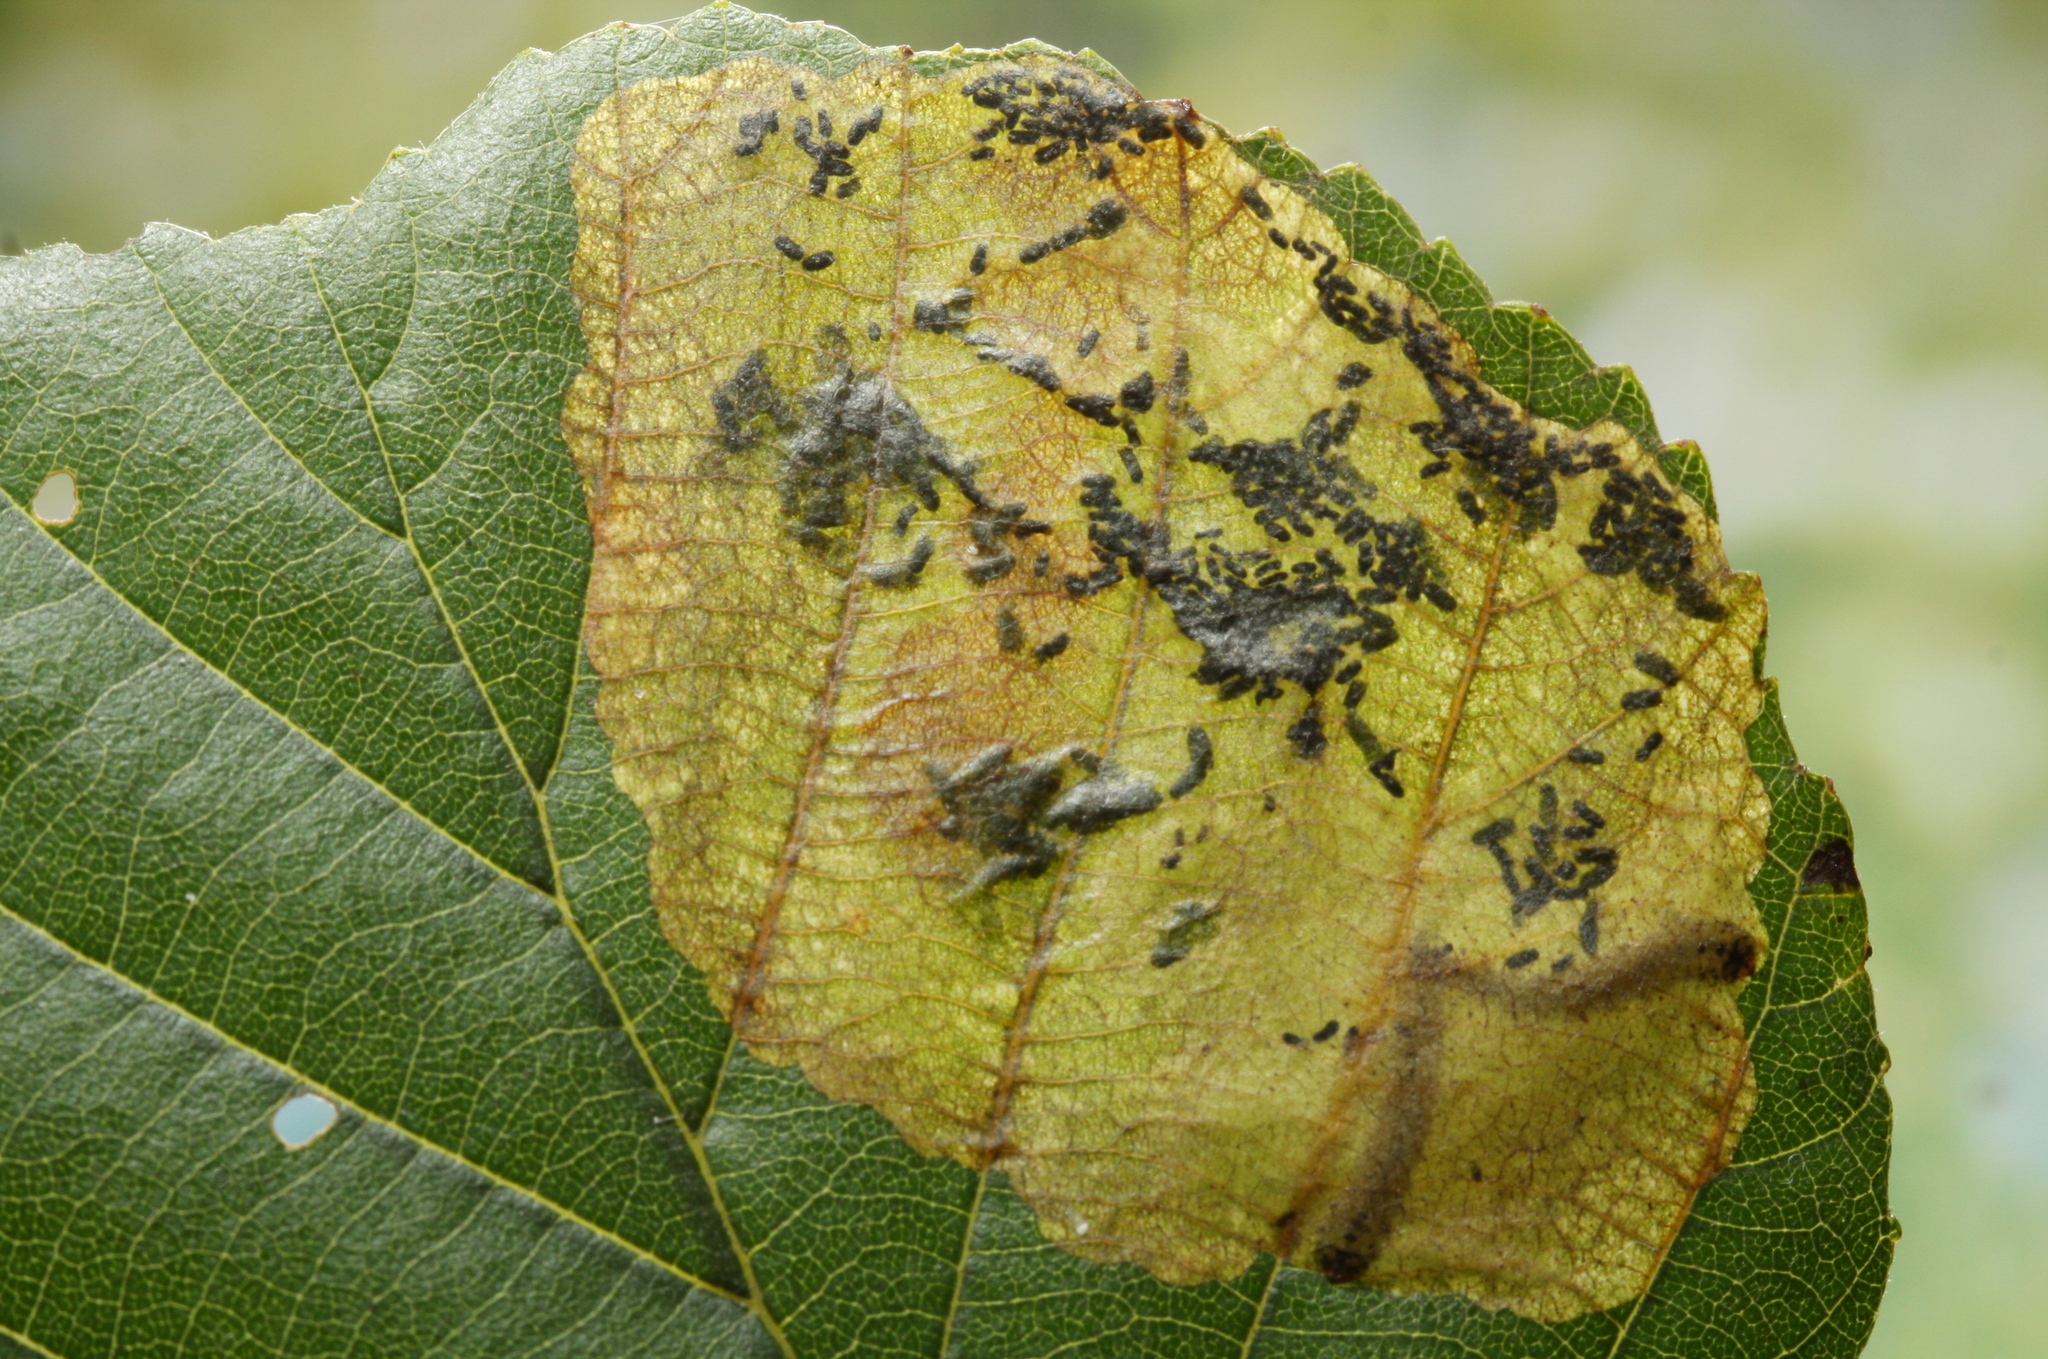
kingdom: Animalia
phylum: Arthropoda
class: Insecta
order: Hymenoptera
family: Tenthredinidae
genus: Heterarthrus
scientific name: Heterarthrus vagans
